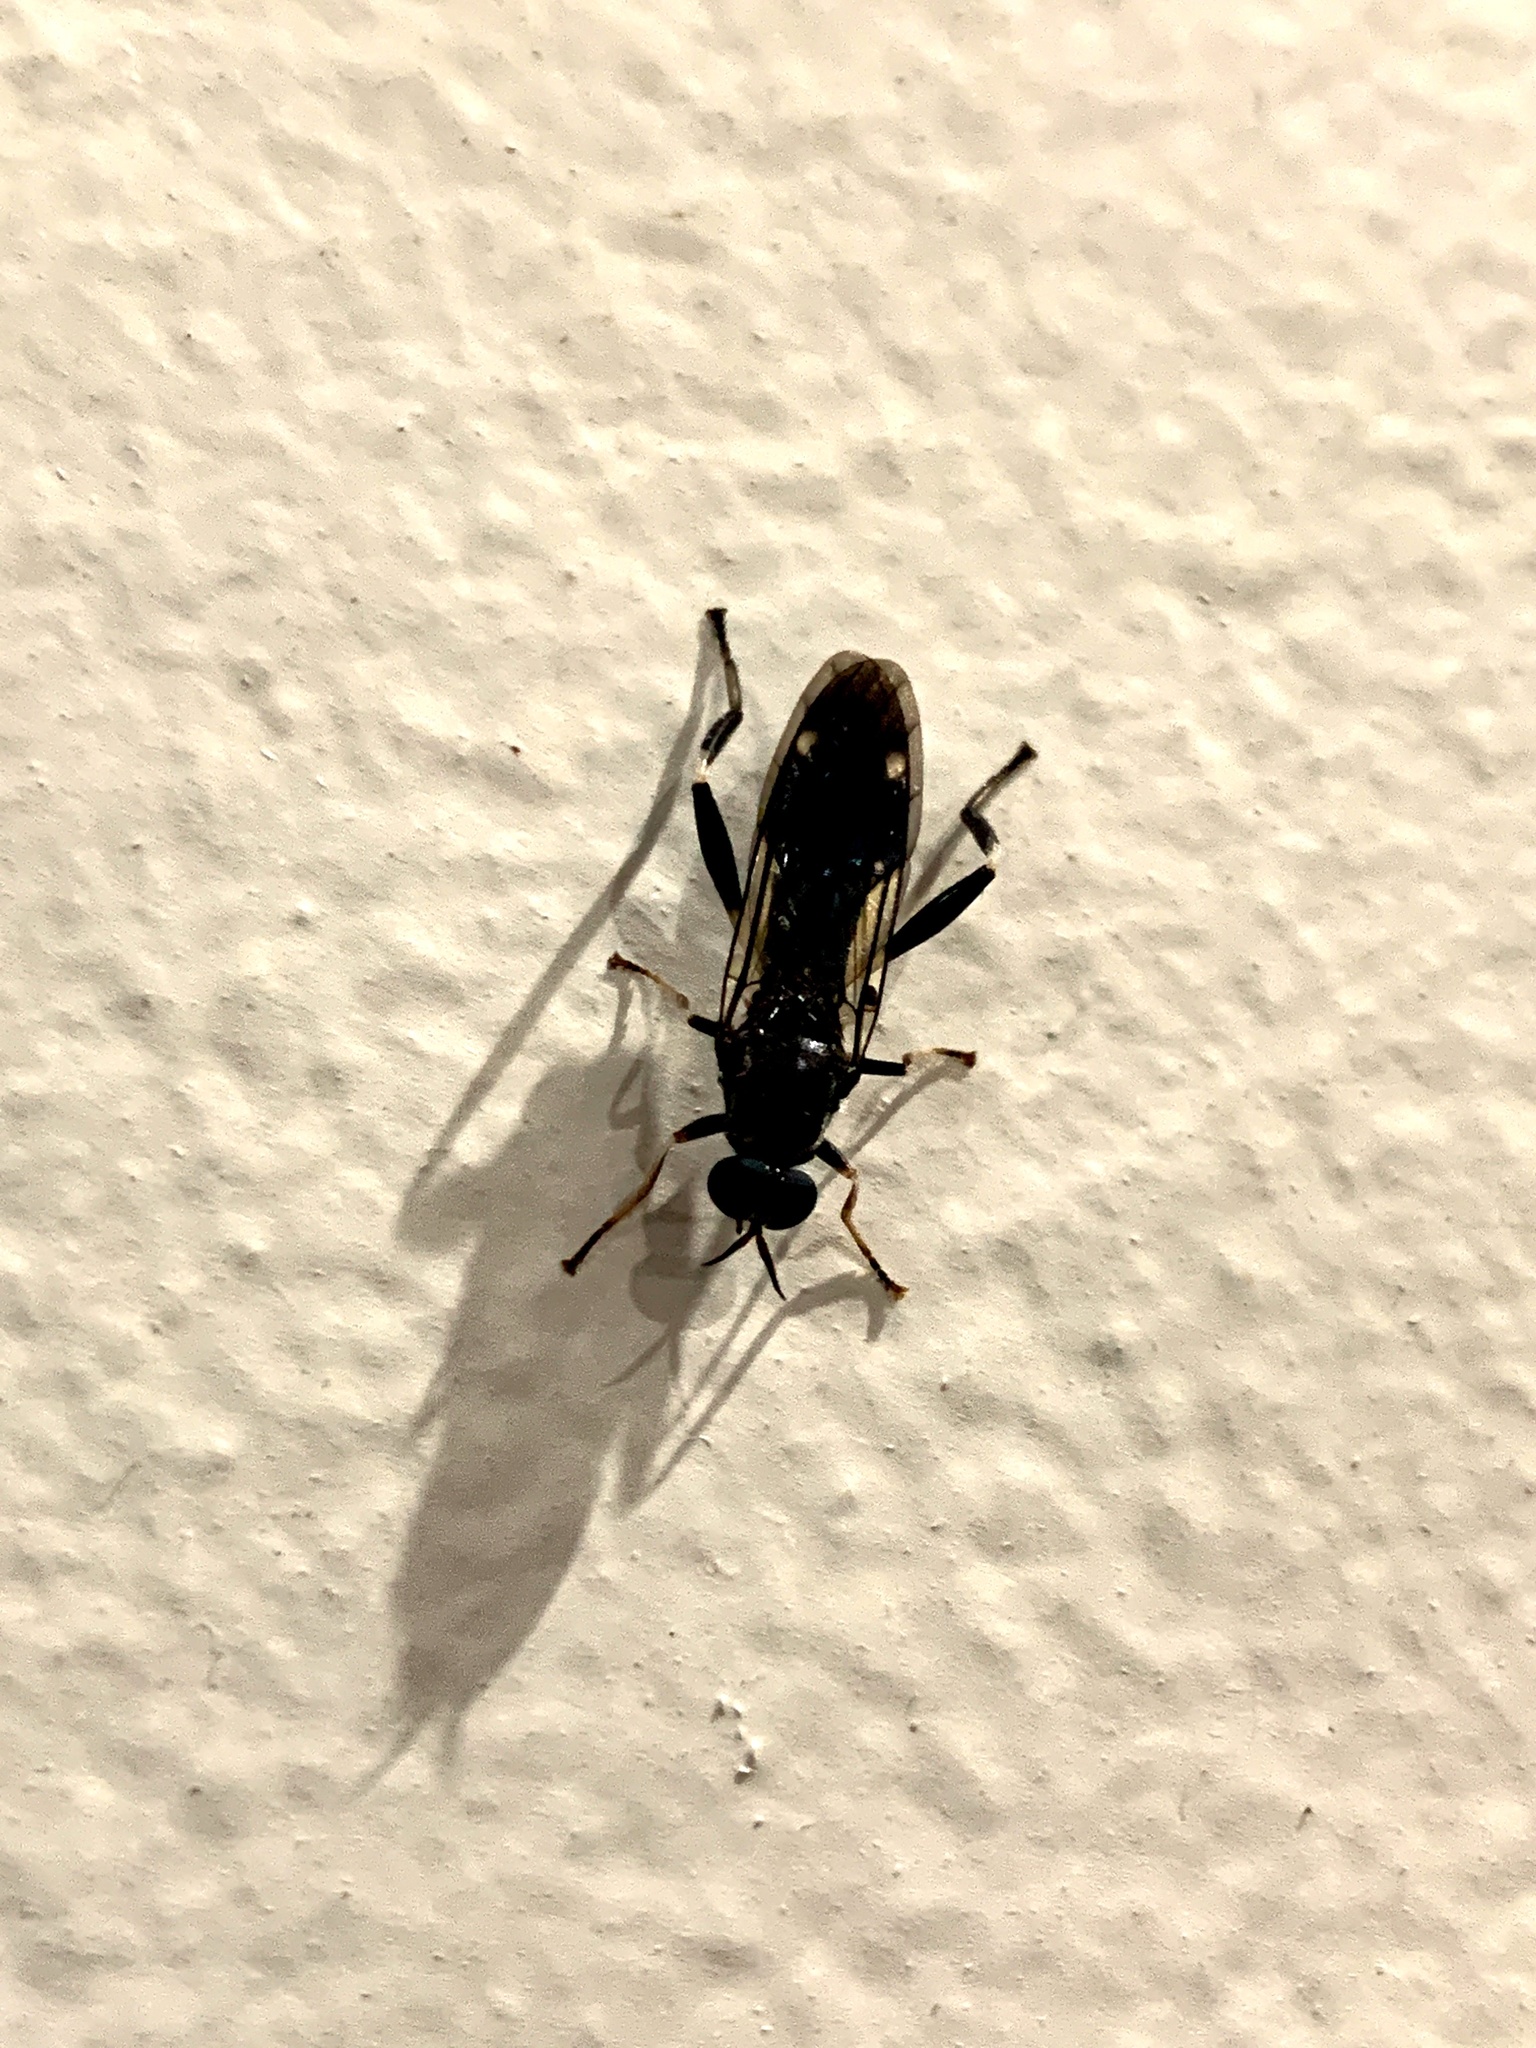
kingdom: Animalia
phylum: Arthropoda
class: Insecta
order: Diptera
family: Stratiomyidae
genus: Exaireta
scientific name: Exaireta spinigera
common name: Blue soldier fly
